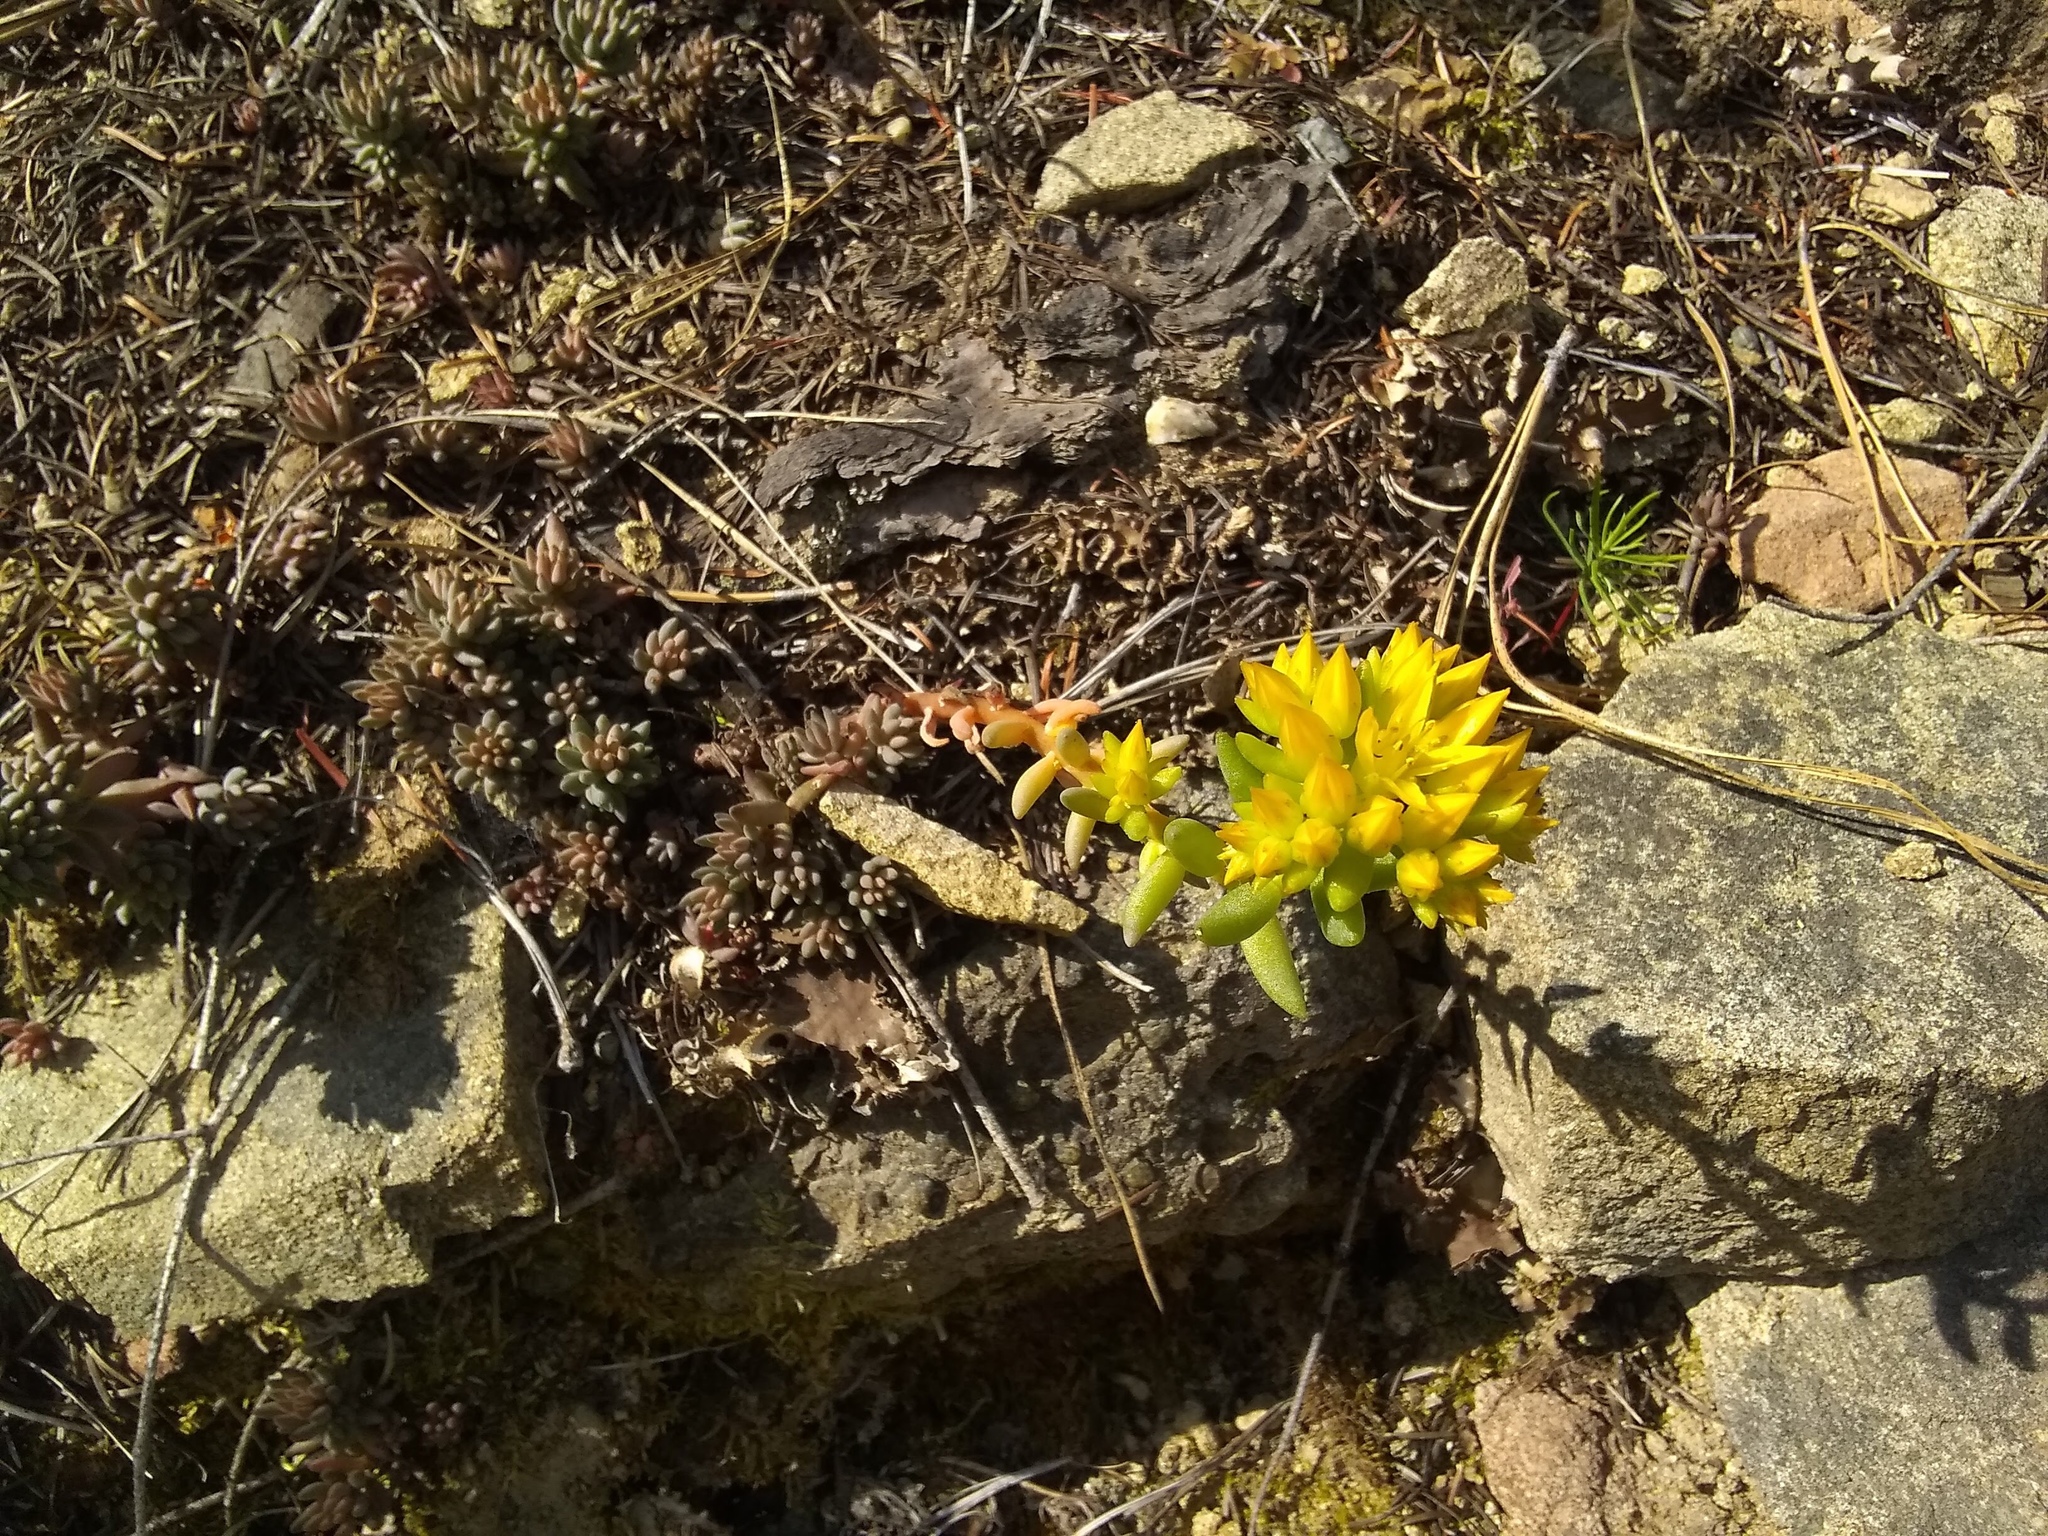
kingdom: Plantae
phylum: Tracheophyta
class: Magnoliopsida
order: Saxifragales
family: Crassulaceae
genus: Sedum
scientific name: Sedum lanceolatum
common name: Common stonecrop
